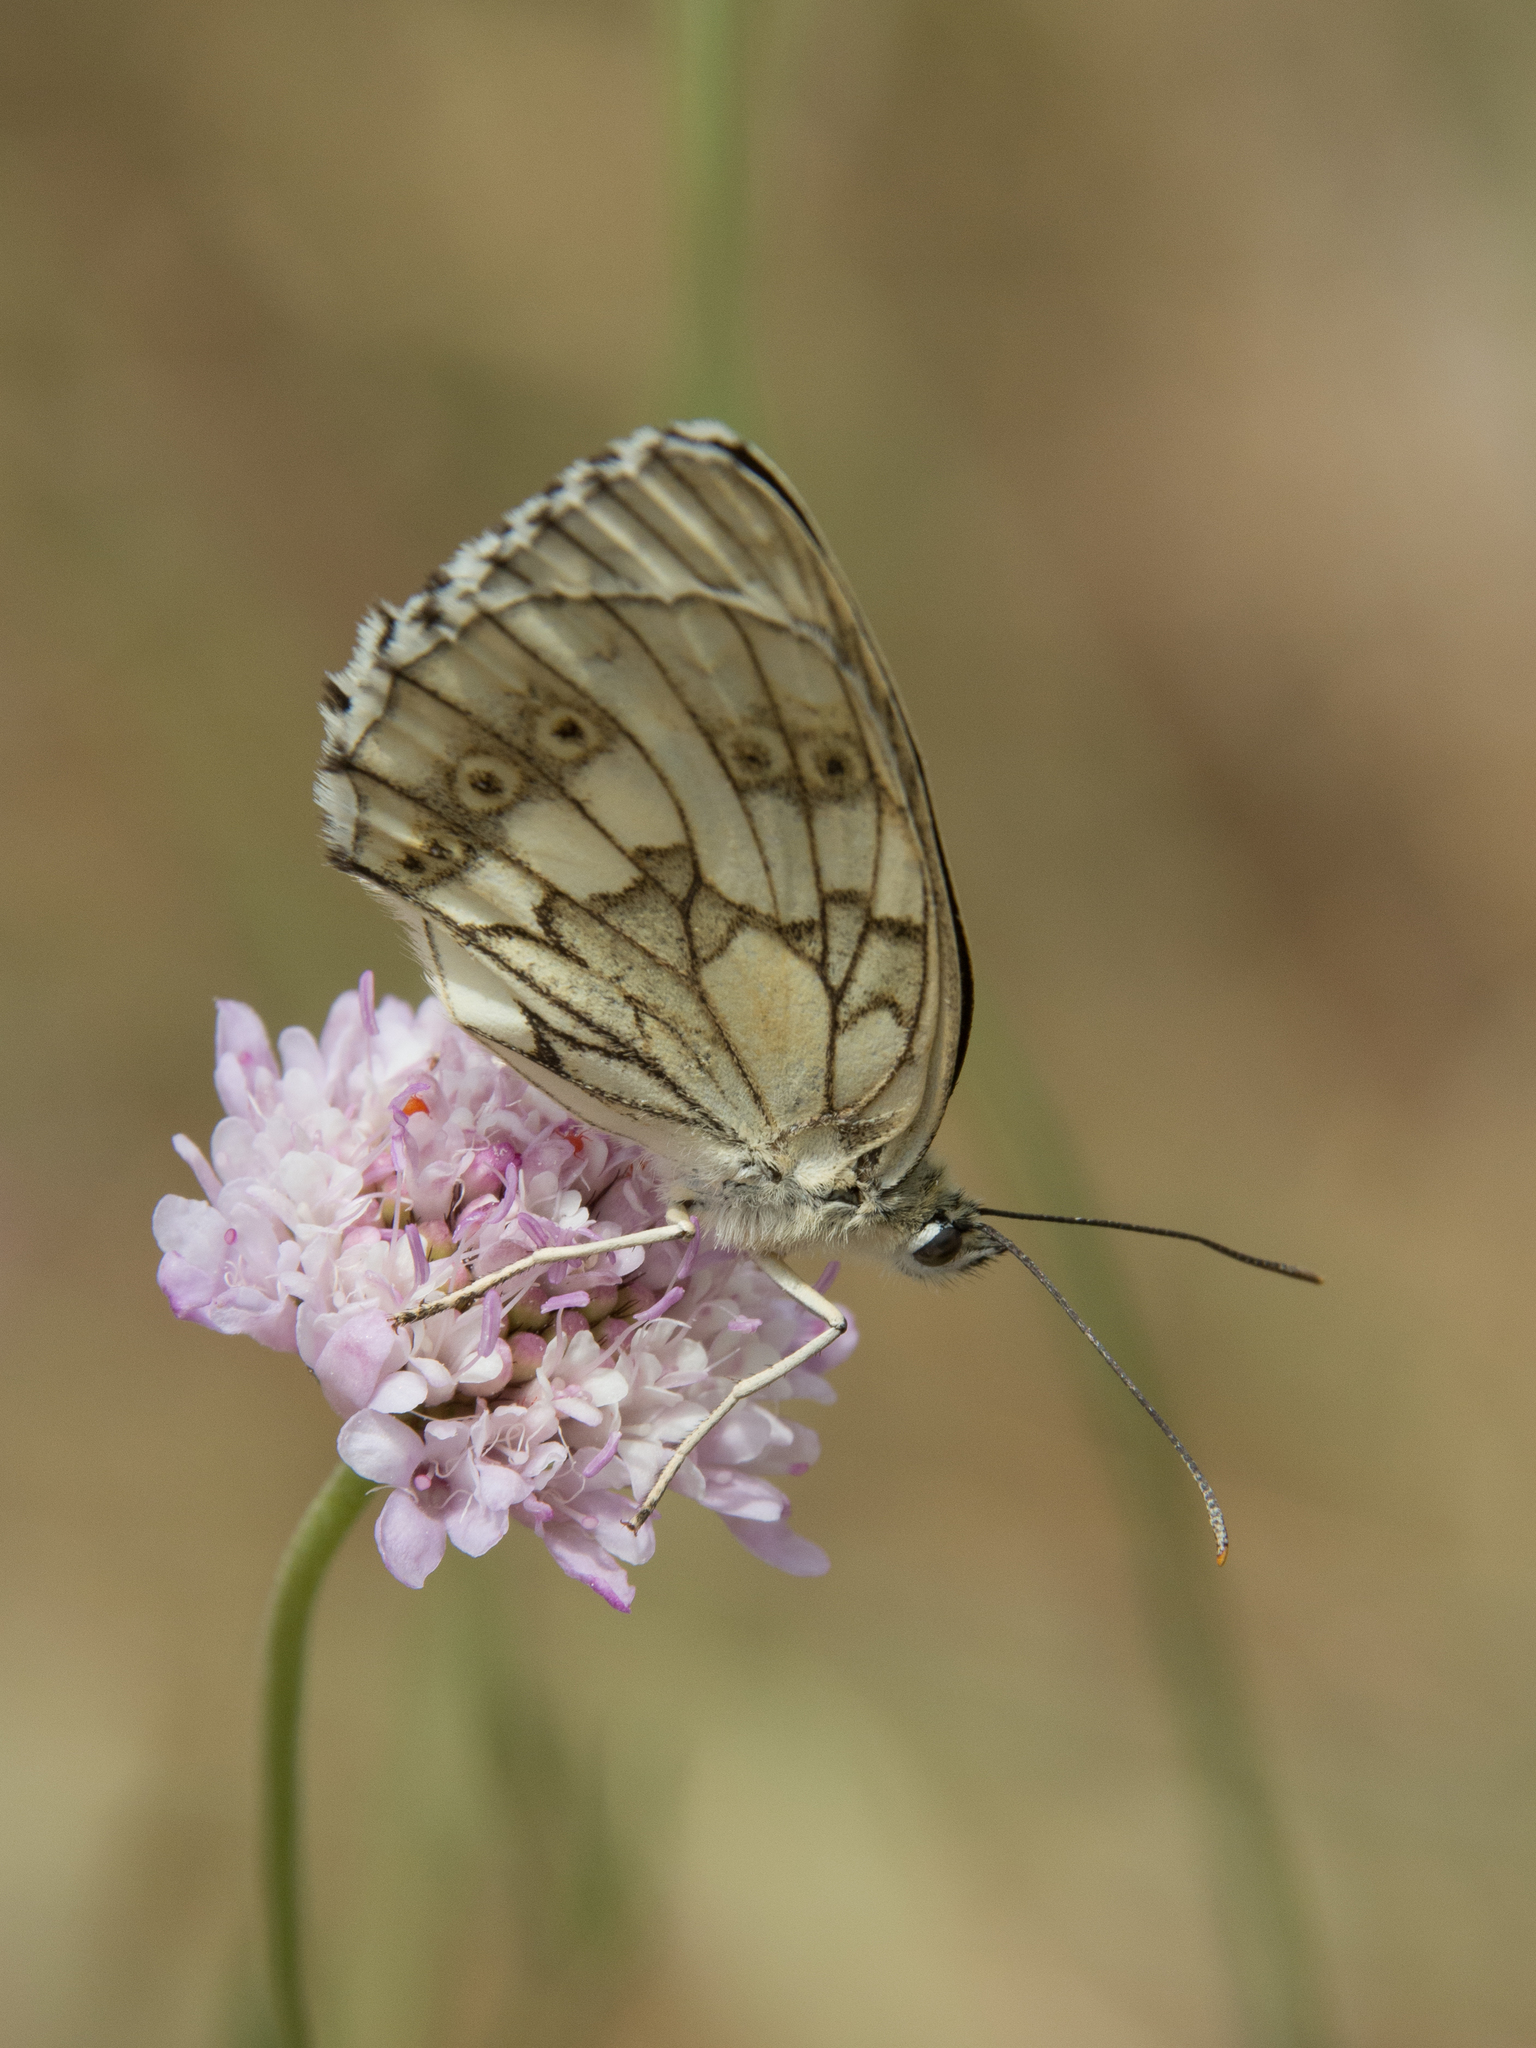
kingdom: Animalia
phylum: Arthropoda
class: Insecta
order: Lepidoptera
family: Nymphalidae
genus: Melanargia
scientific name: Melanargia galathea
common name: Marbled white
